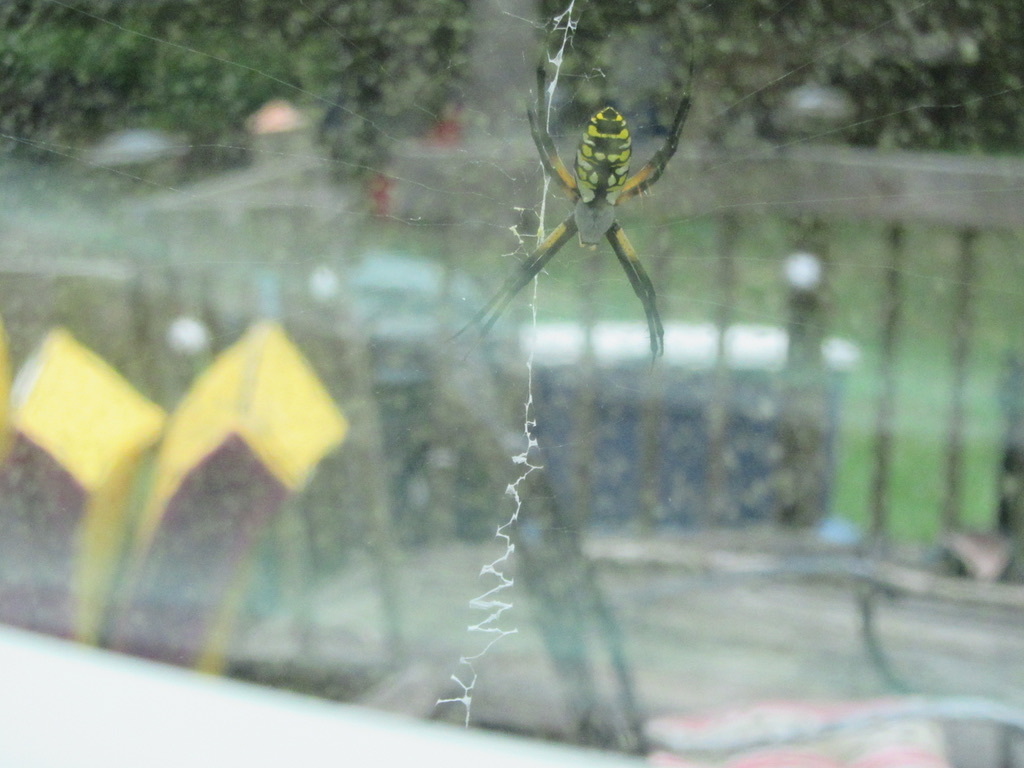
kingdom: Animalia
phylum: Arthropoda
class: Arachnida
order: Araneae
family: Araneidae
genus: Argiope
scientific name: Argiope aurantia
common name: Orb weavers
